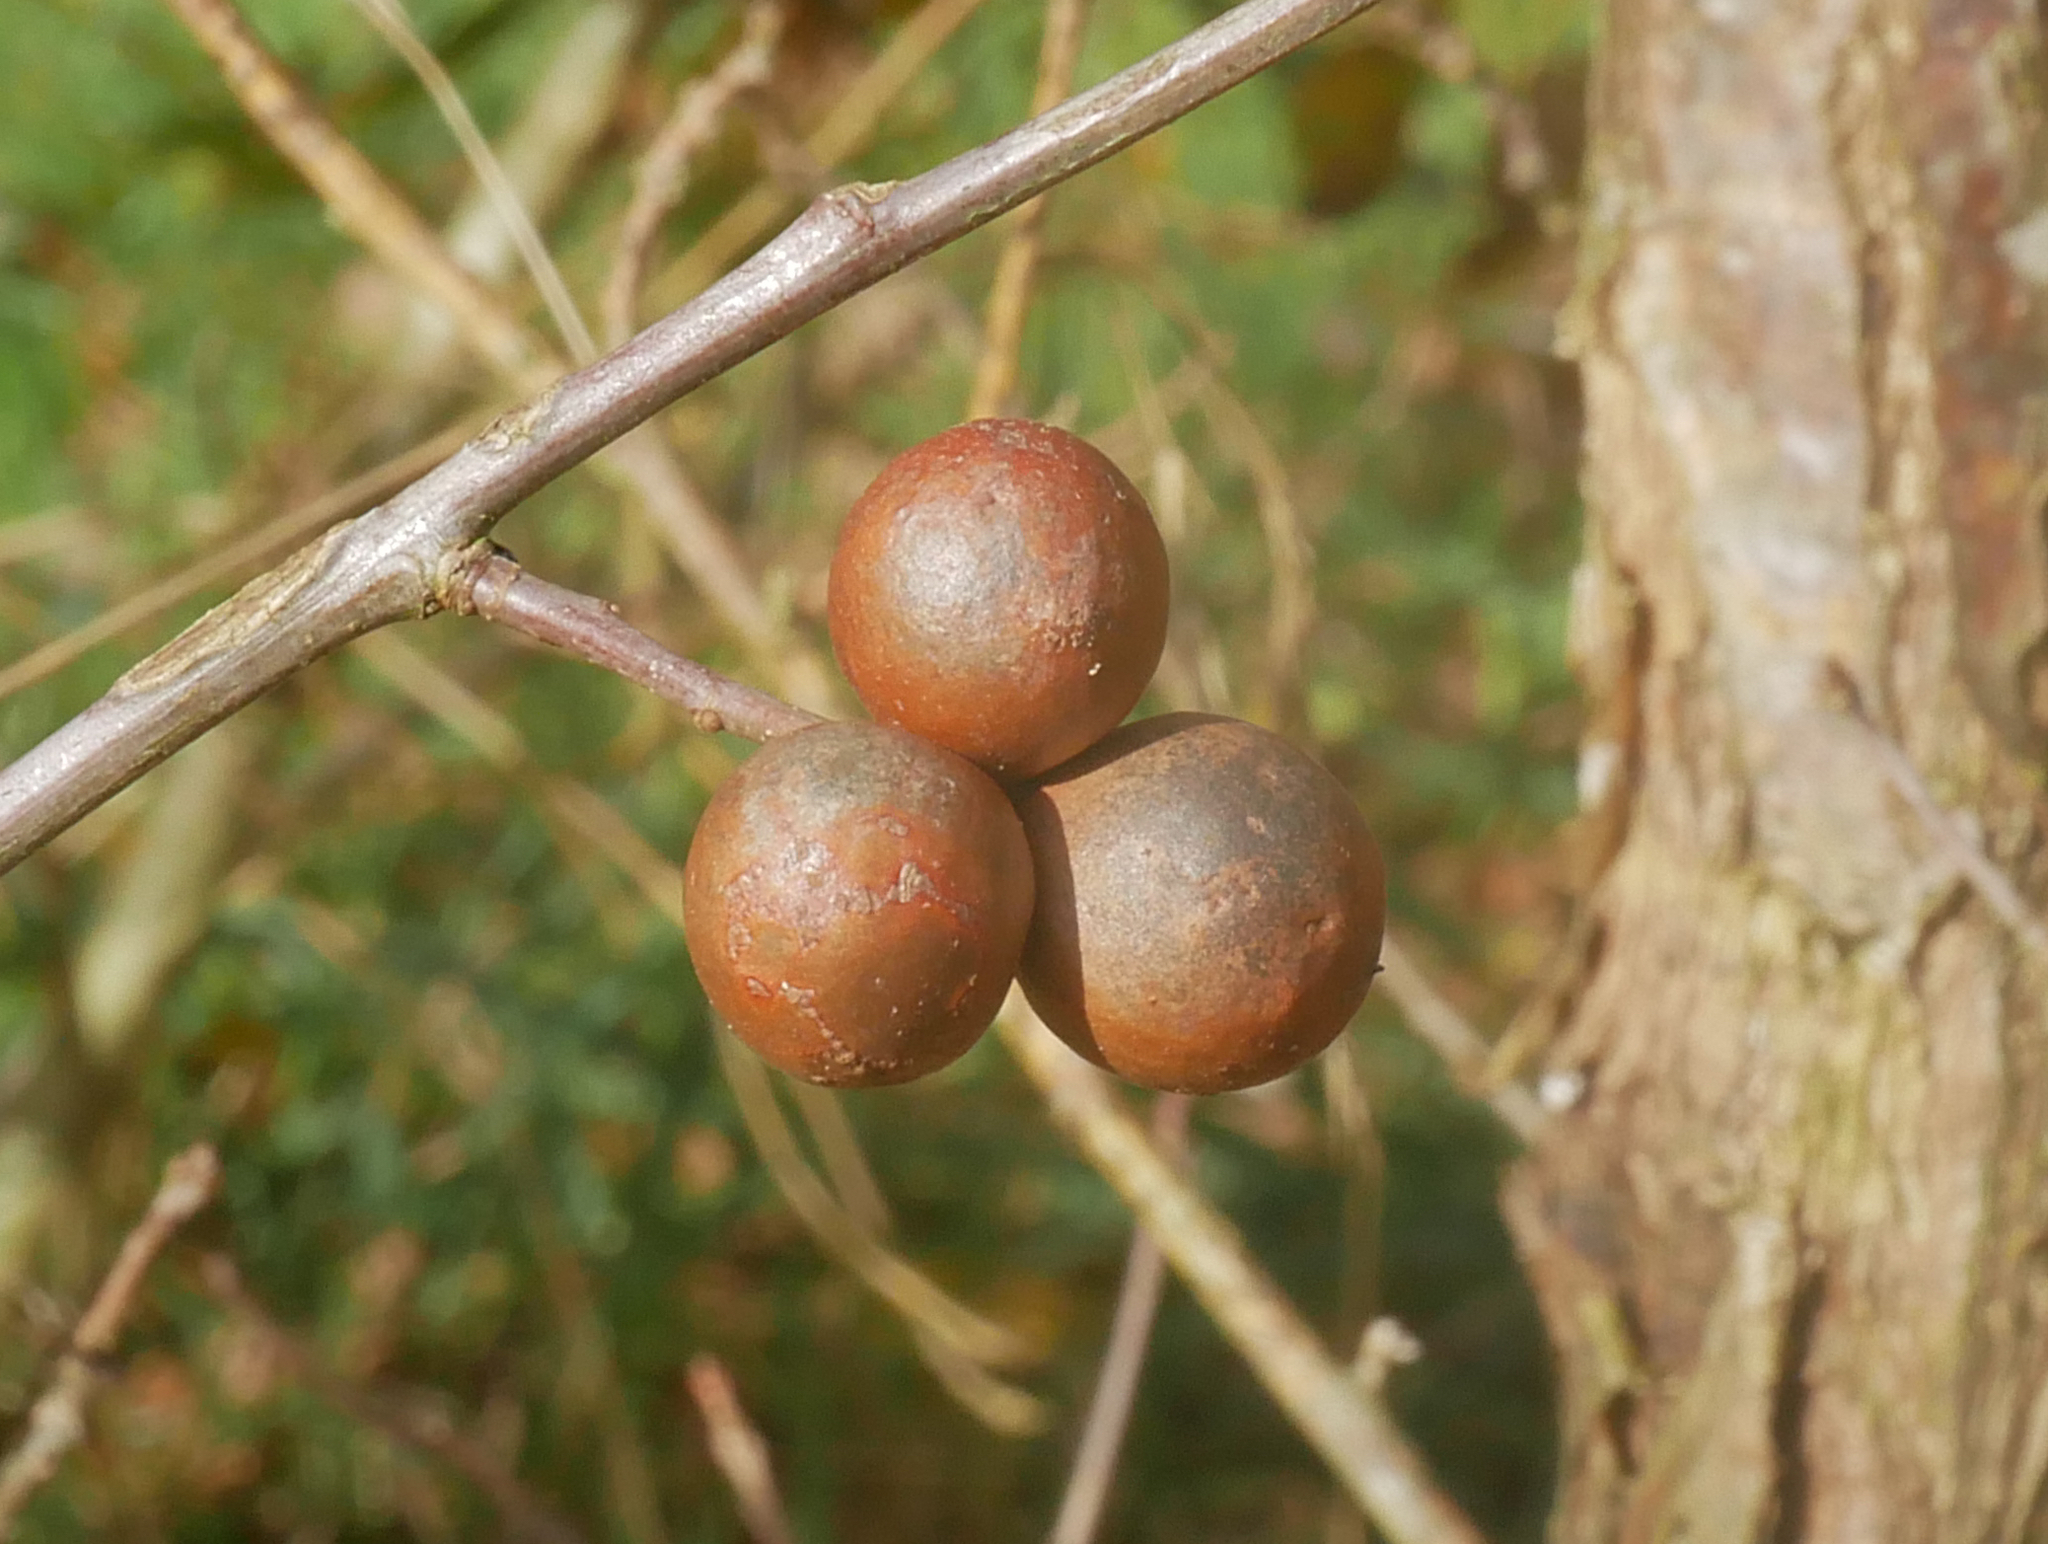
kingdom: Animalia
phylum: Arthropoda
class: Insecta
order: Hymenoptera
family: Cynipidae
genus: Andricus
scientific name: Andricus kollari
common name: Marble gall
